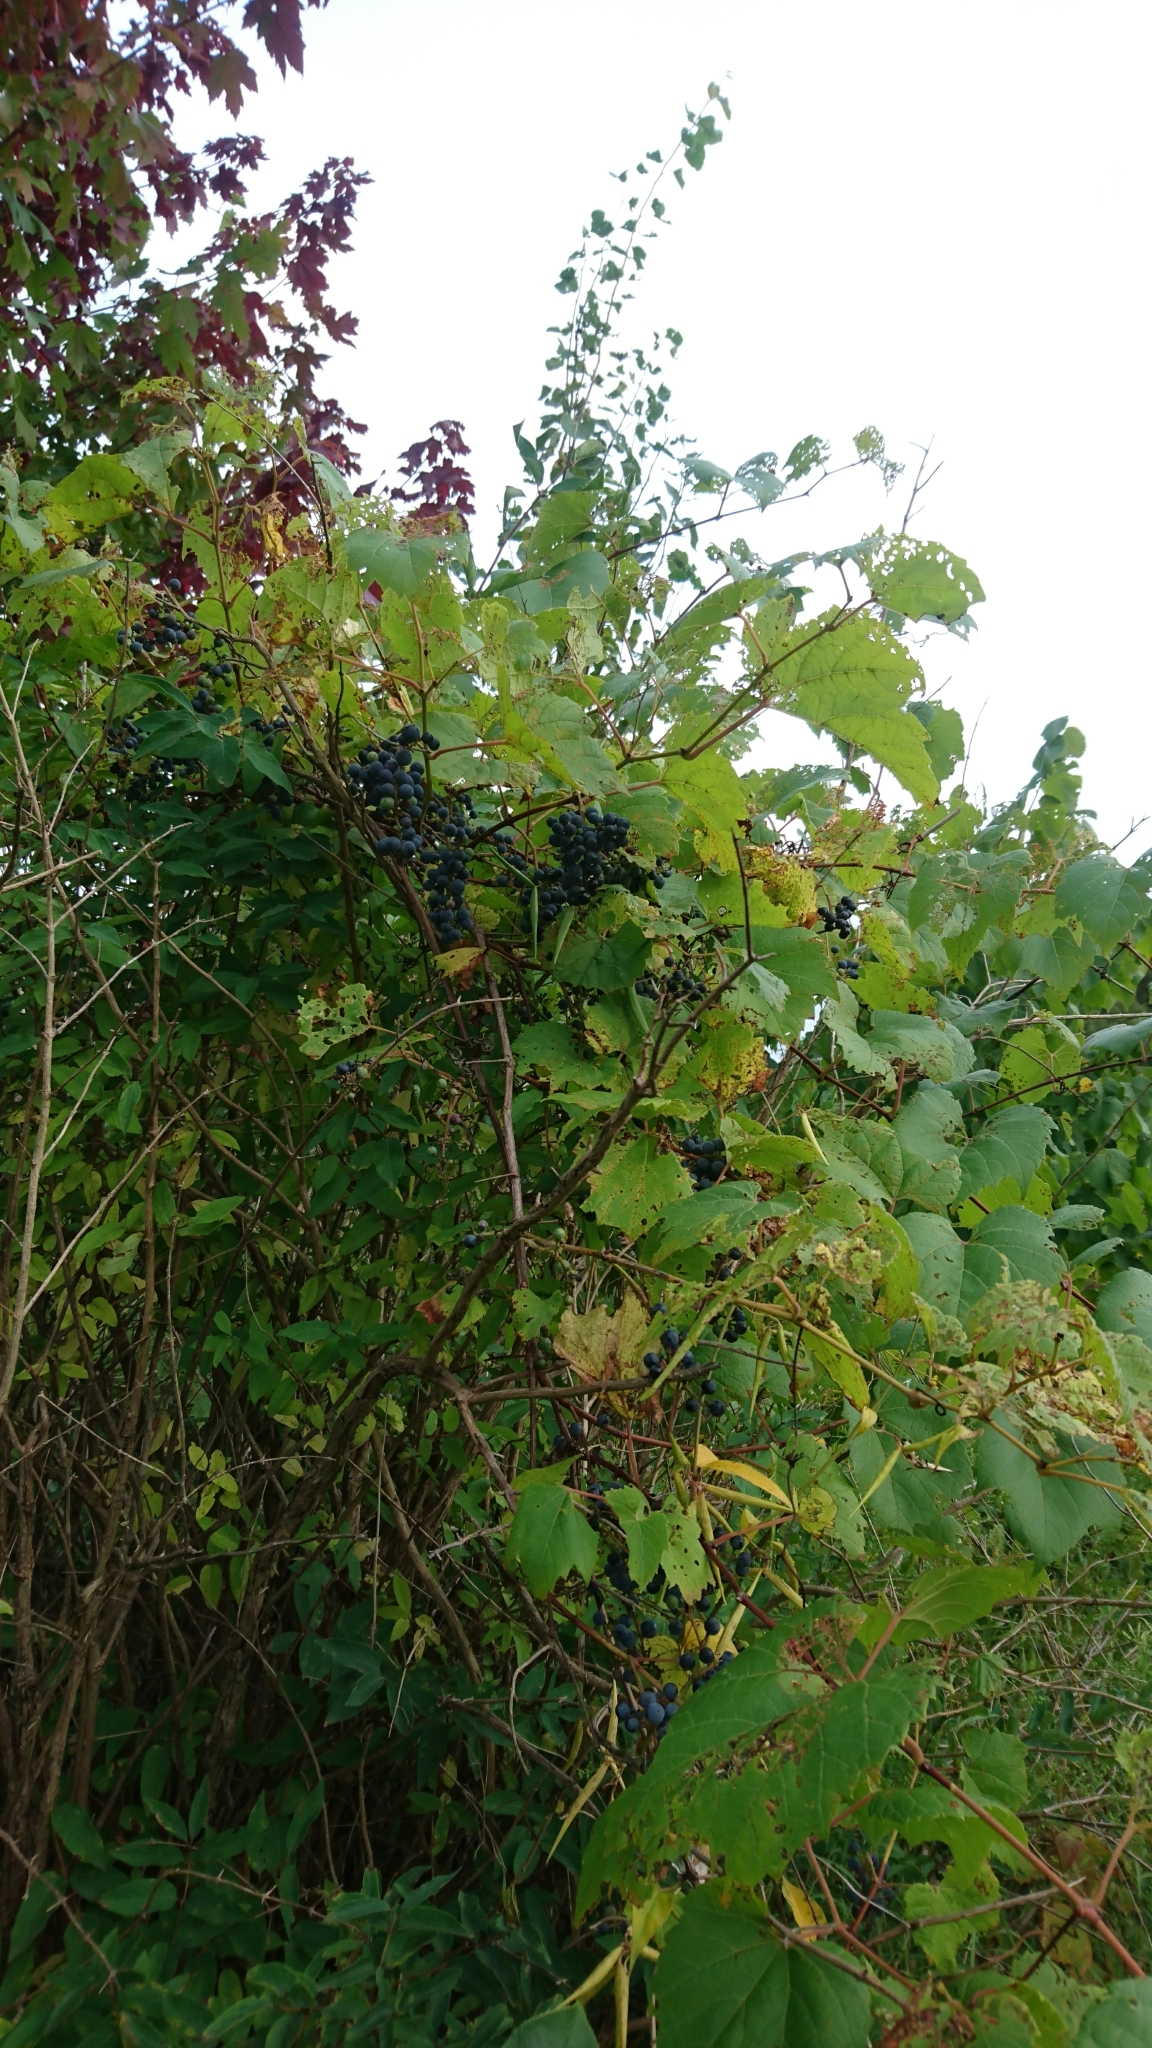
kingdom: Plantae
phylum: Tracheophyta
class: Magnoliopsida
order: Vitales
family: Vitaceae
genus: Vitis
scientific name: Vitis riparia
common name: Frost grape
